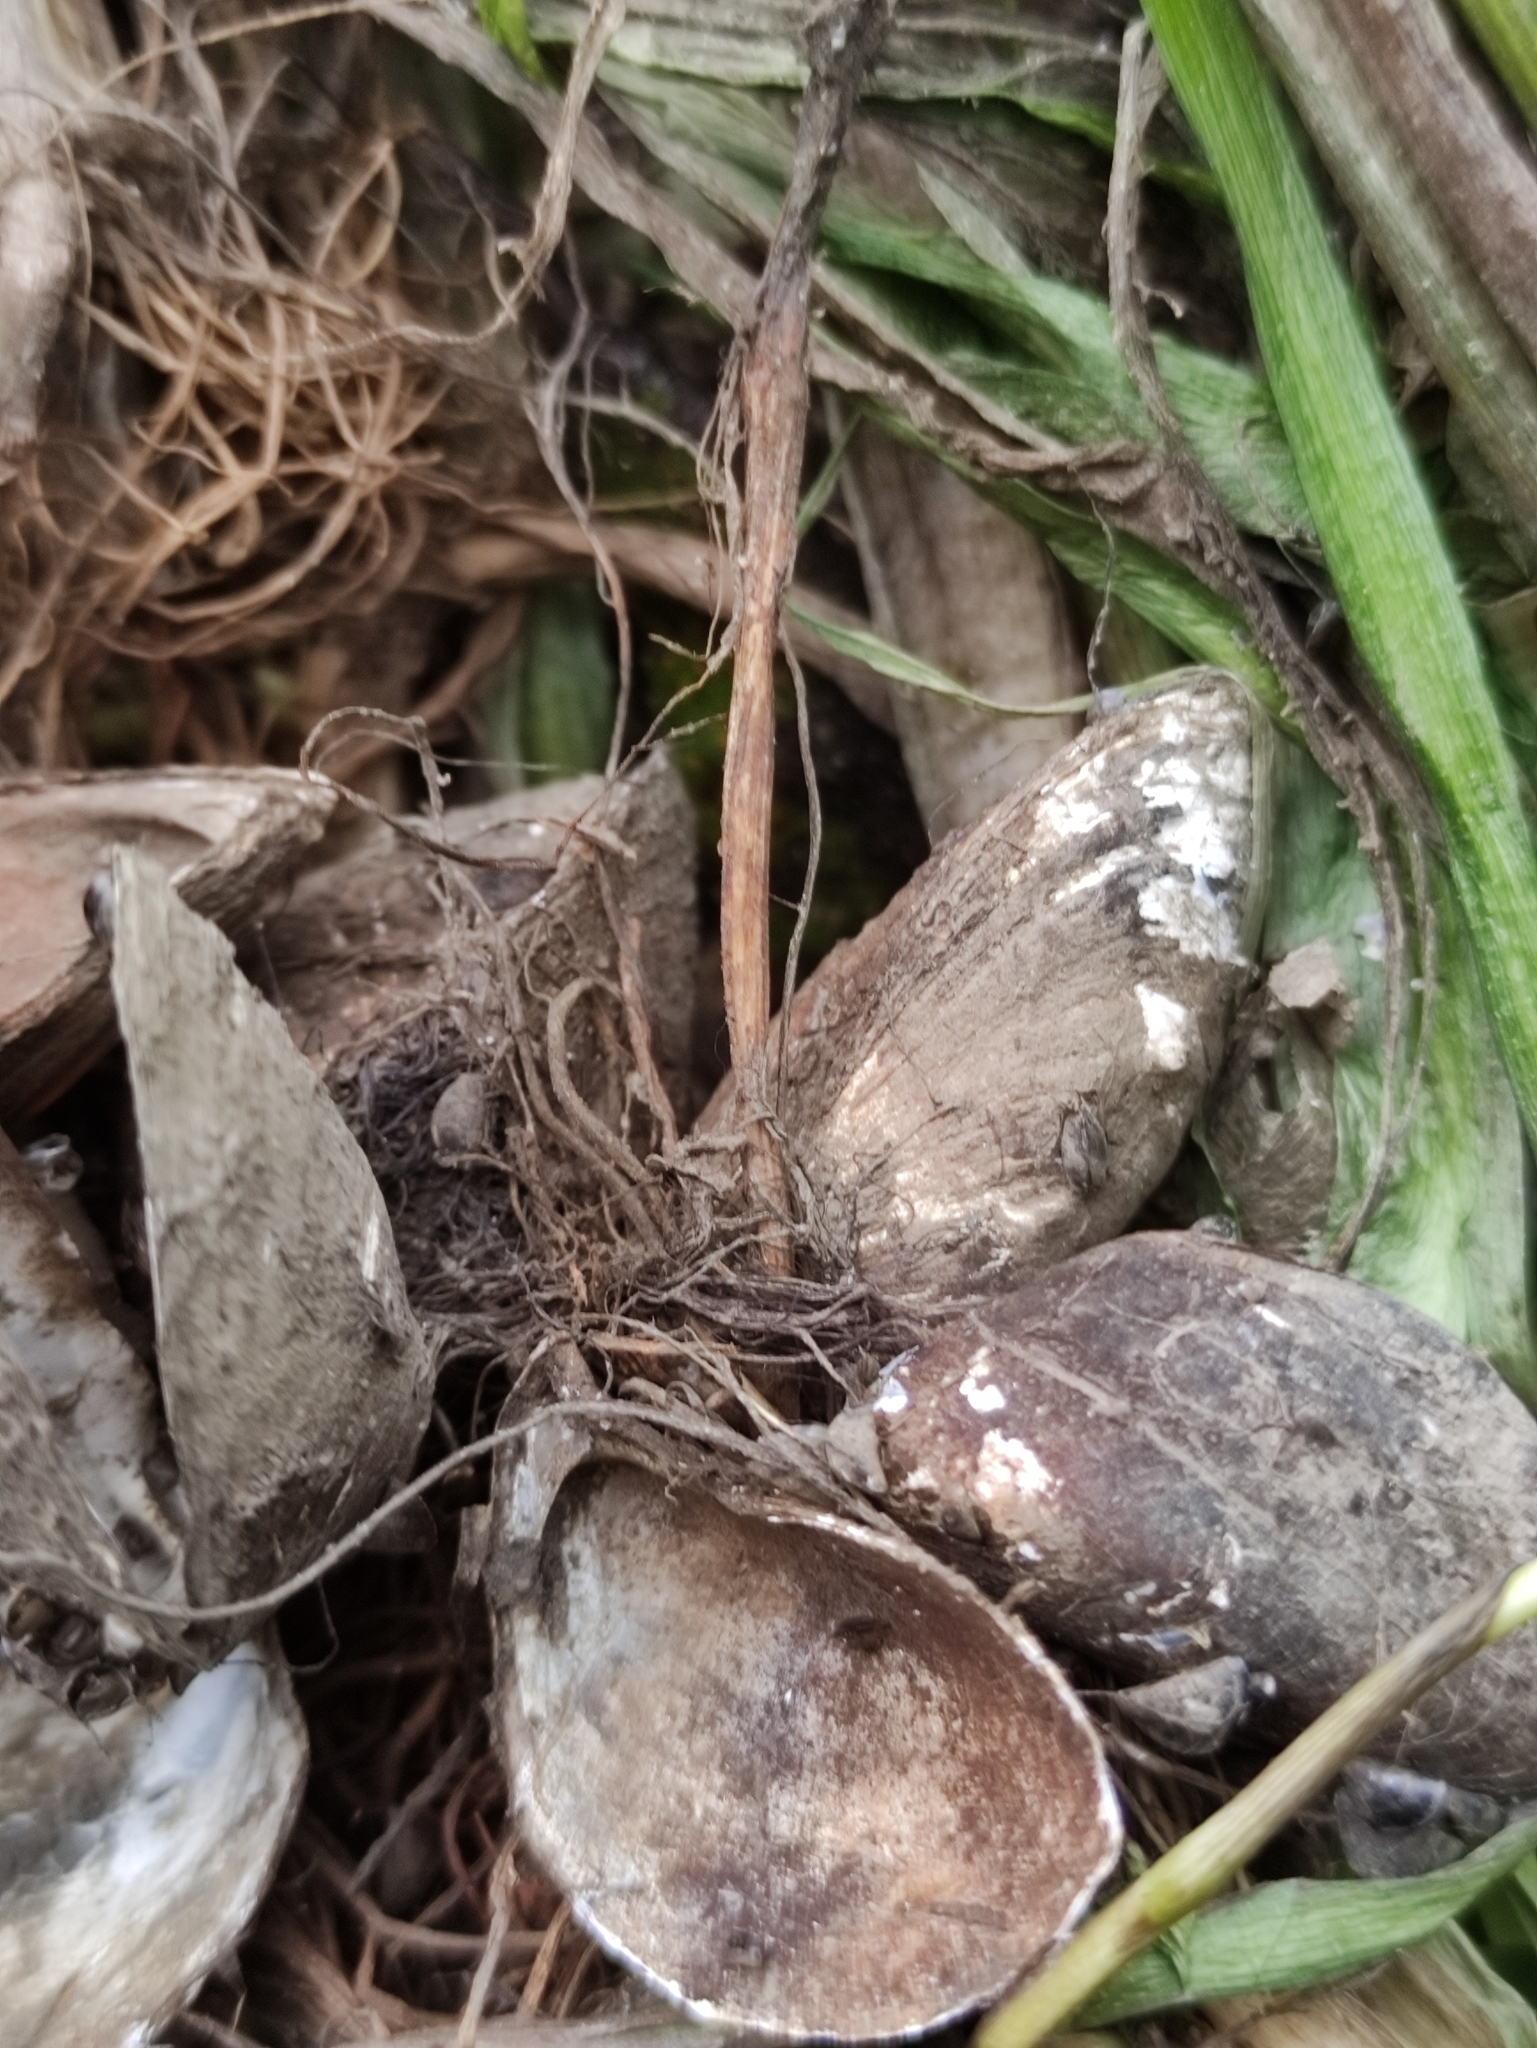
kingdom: Animalia
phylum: Mollusca
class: Bivalvia
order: Myida
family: Dreissenidae
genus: Dreissena
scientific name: Dreissena bugensis
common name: Quagga mussel
